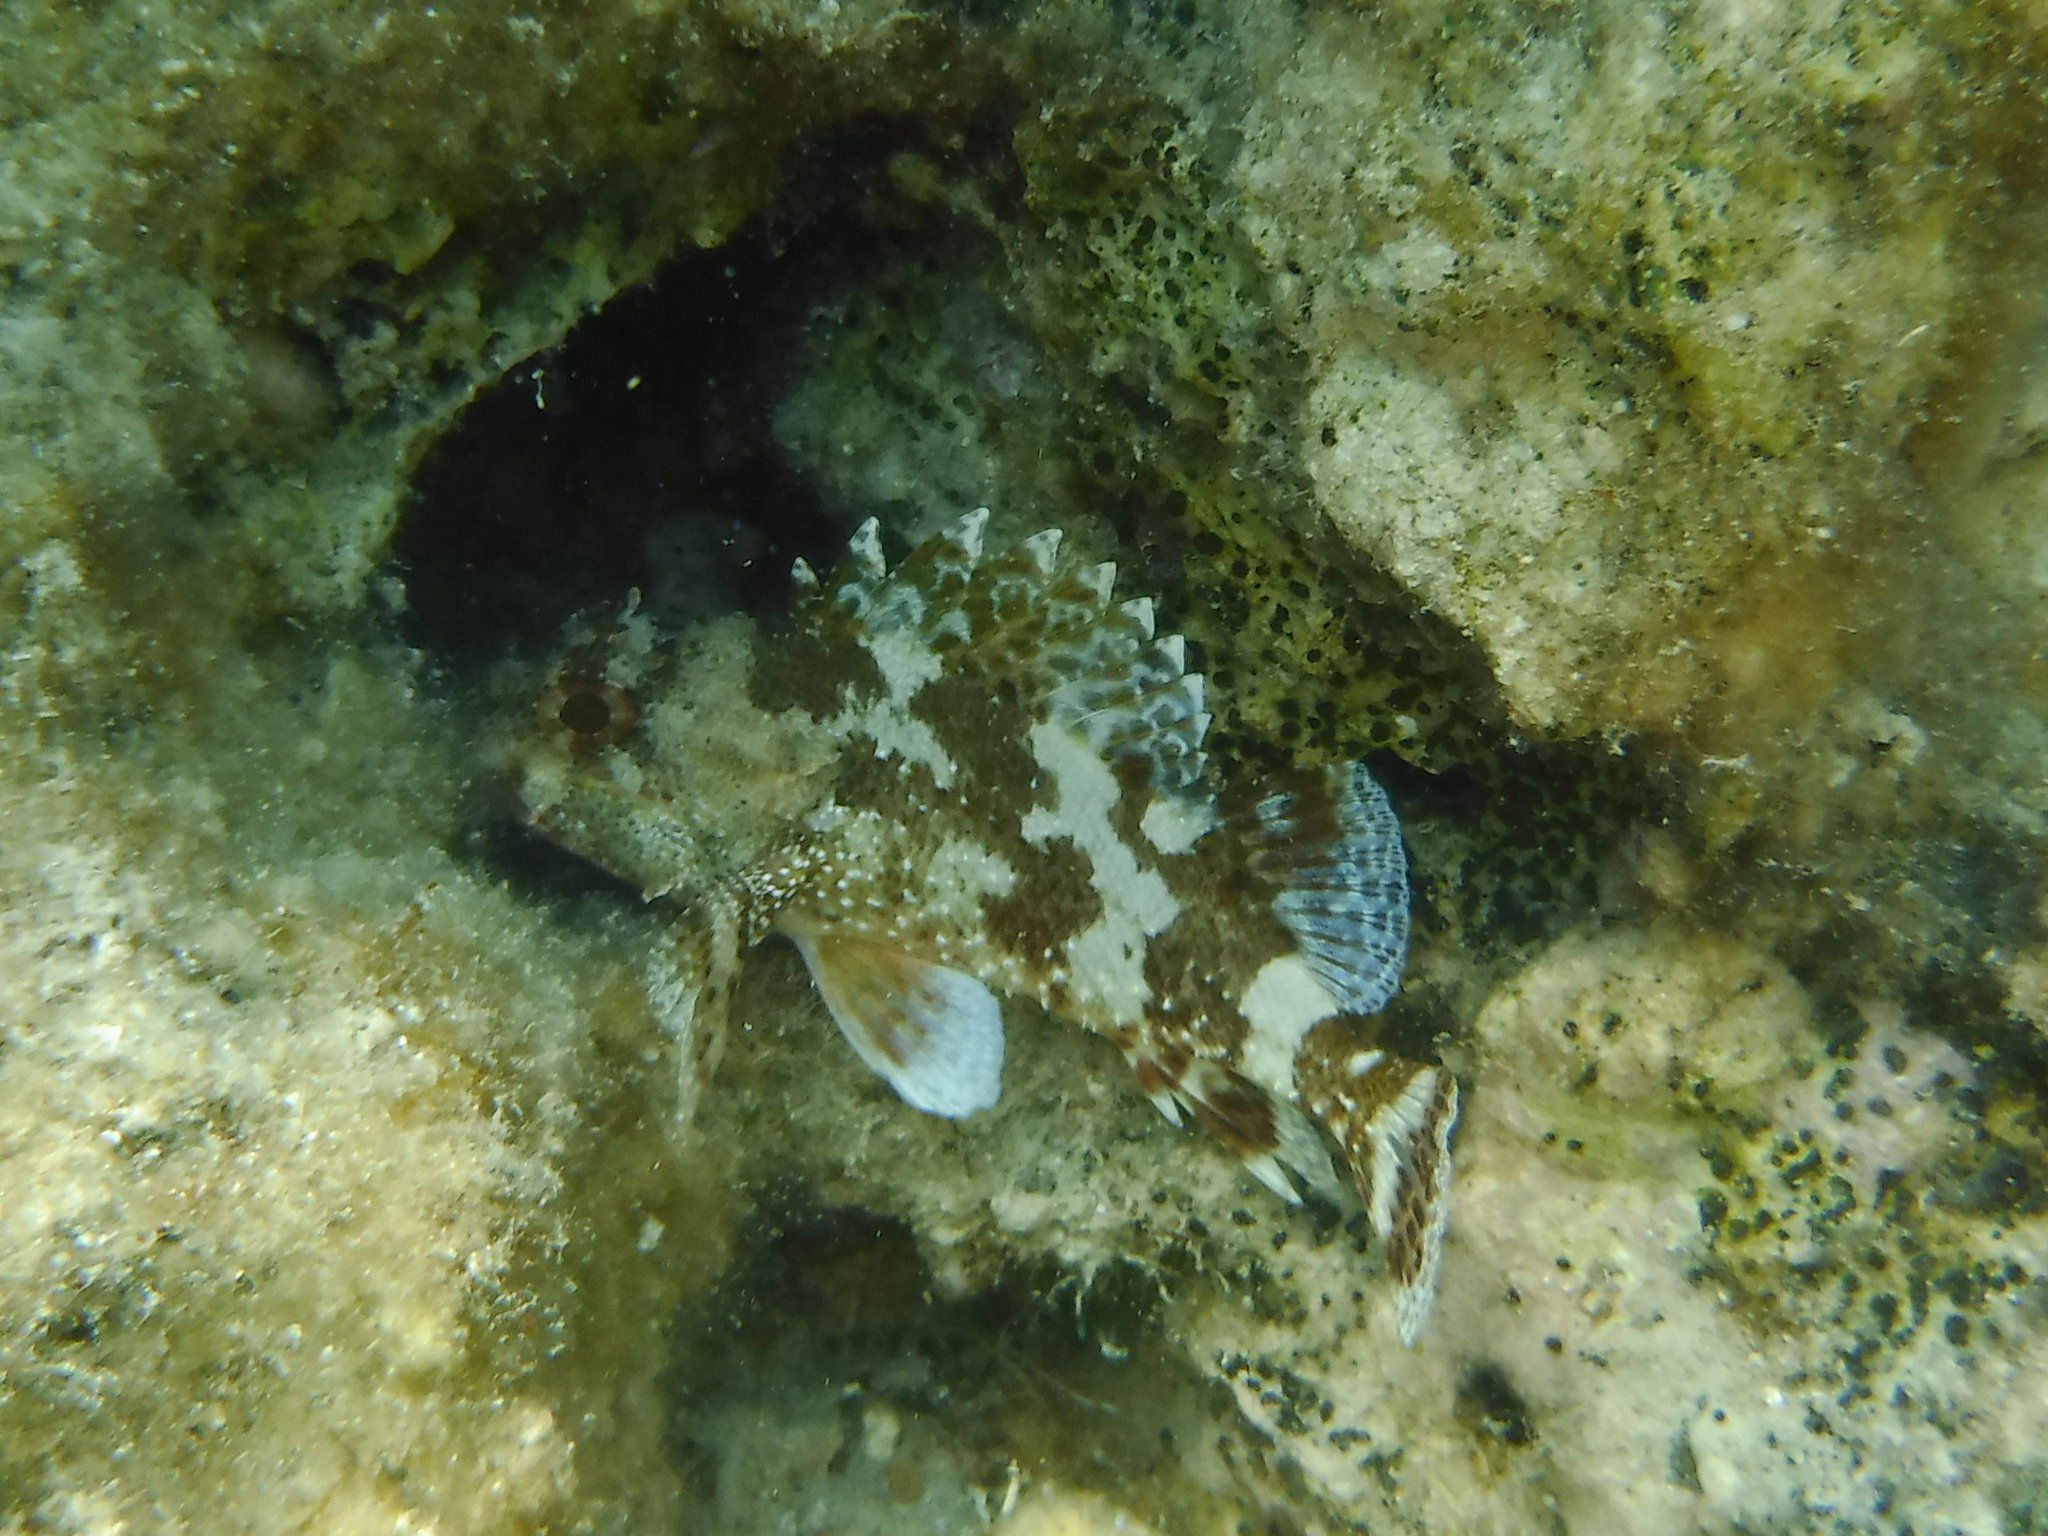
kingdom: Animalia
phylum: Chordata
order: Scorpaeniformes
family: Scorpaenidae
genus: Scorpaena
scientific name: Scorpaena maderensis
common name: Madeira rockfish
